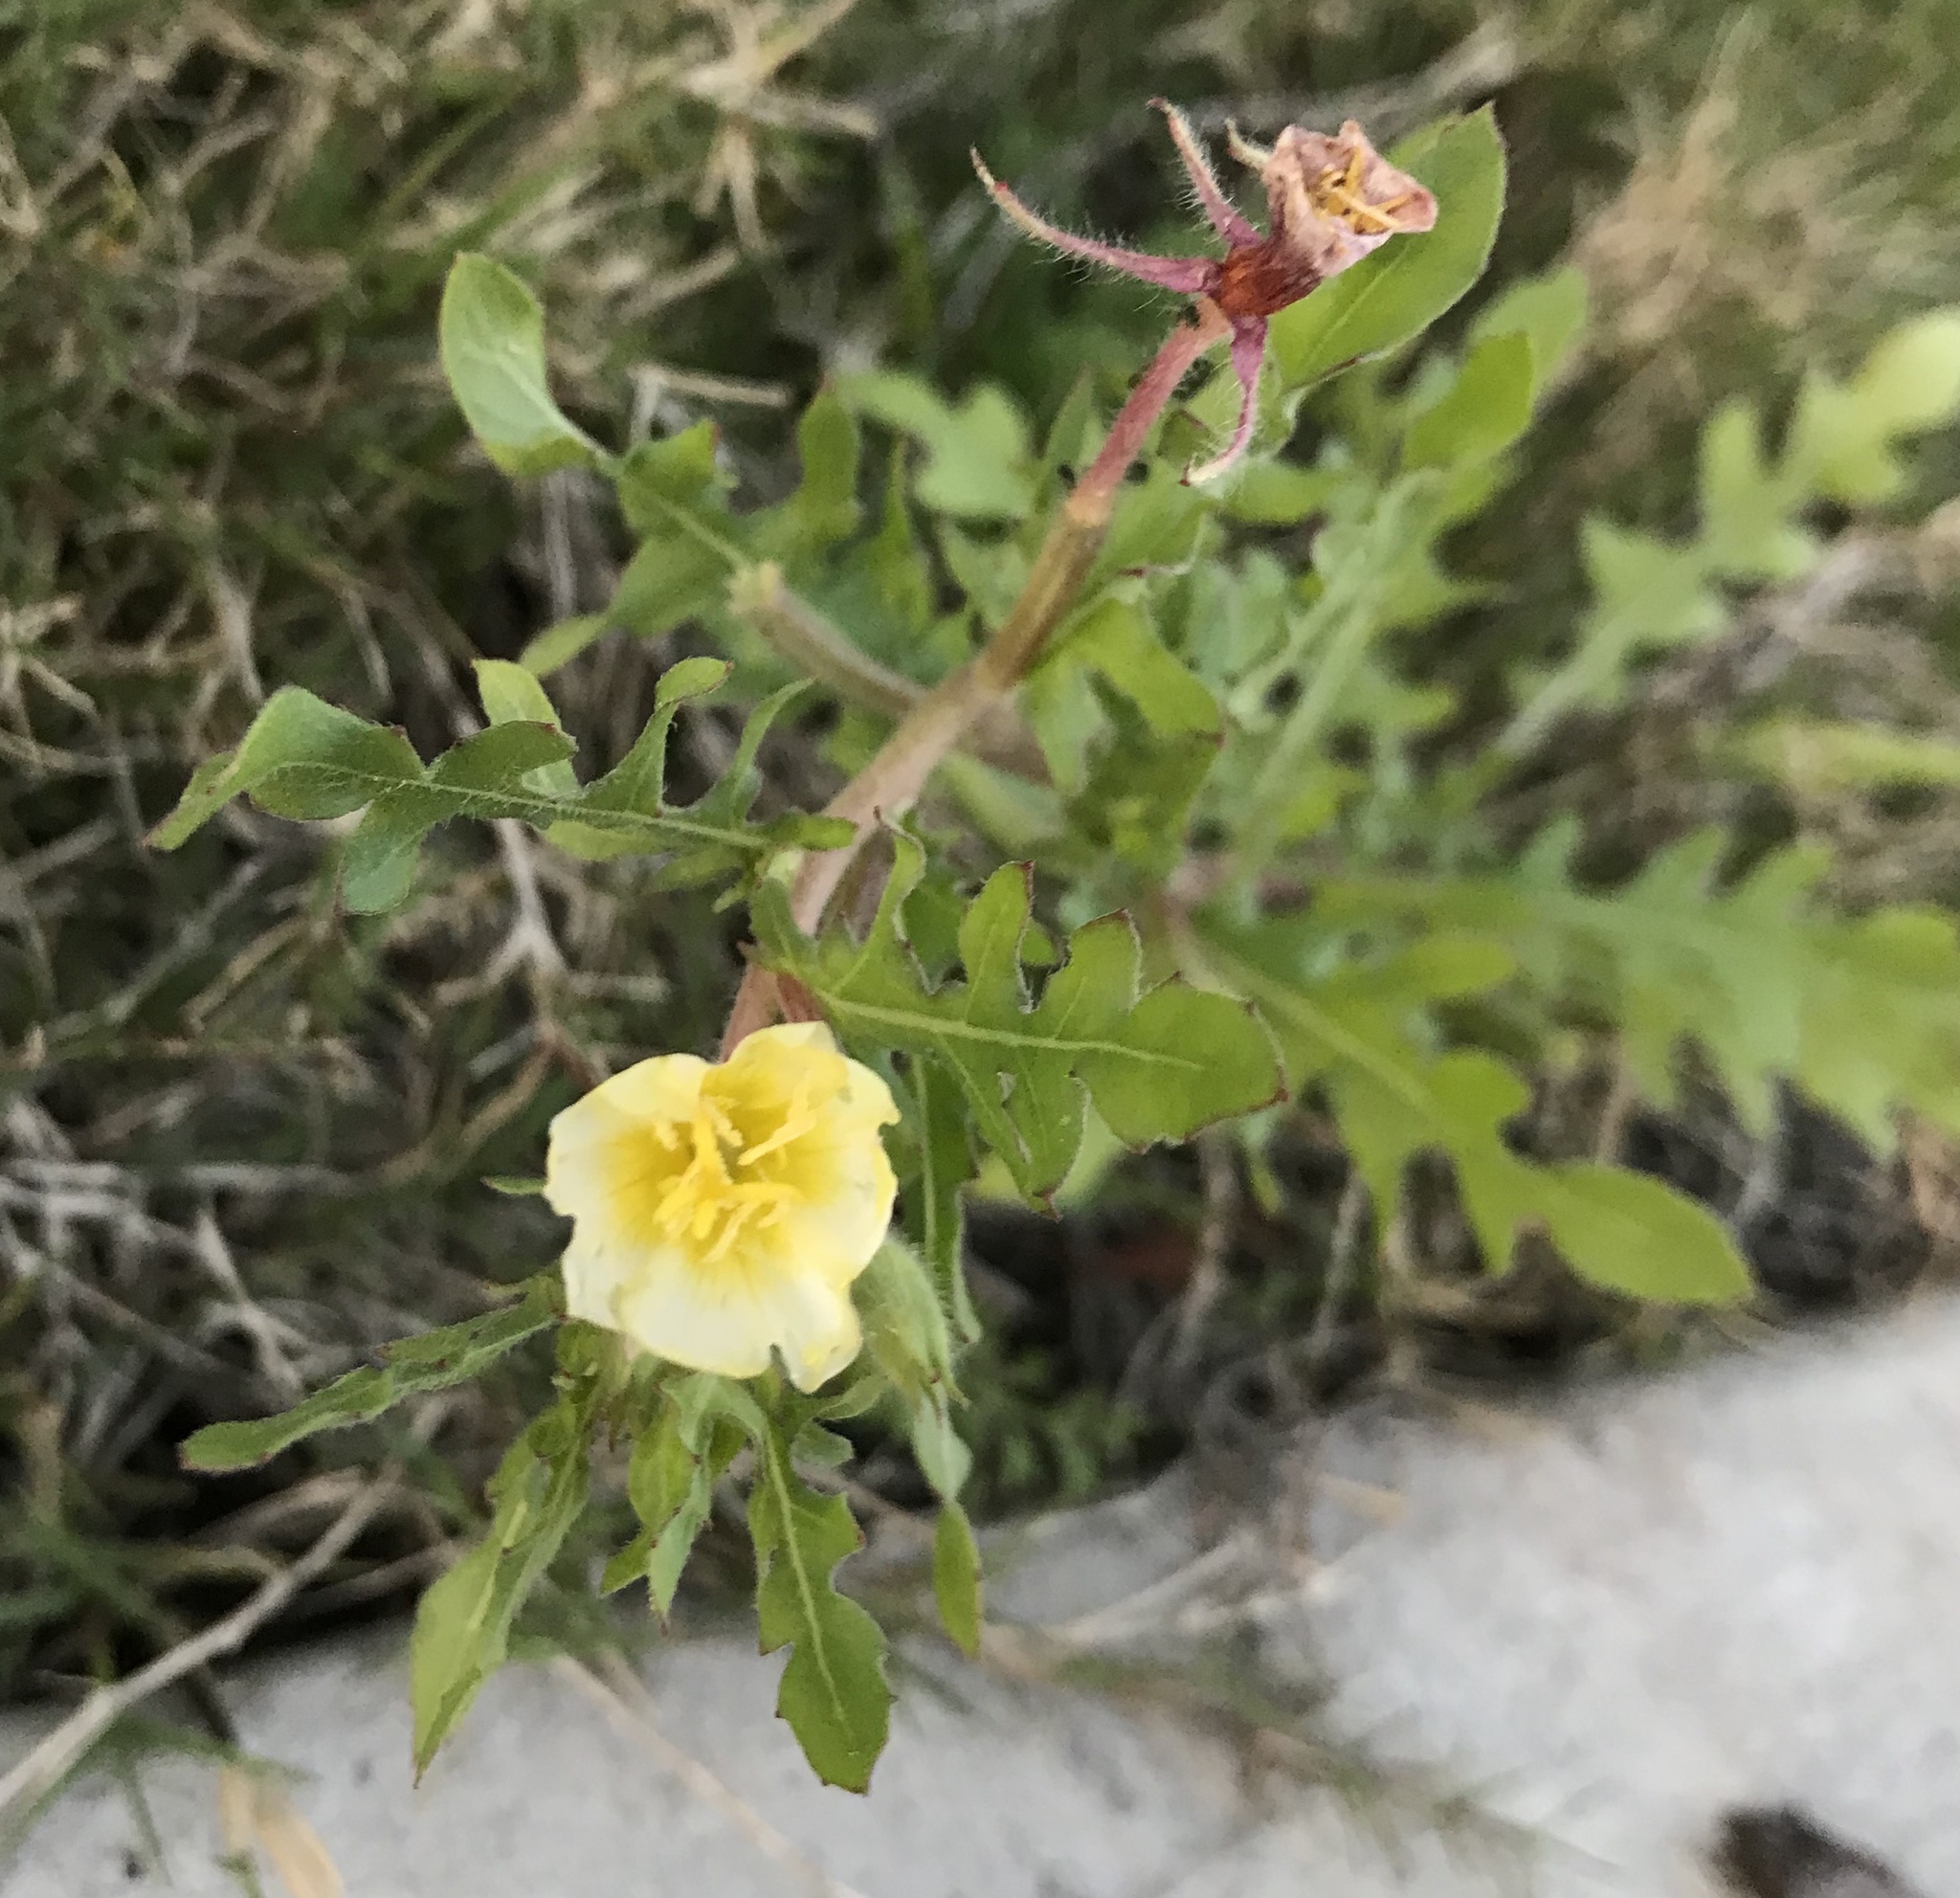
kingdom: Plantae
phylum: Tracheophyta
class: Magnoliopsida
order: Myrtales
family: Onagraceae
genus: Oenothera
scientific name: Oenothera laciniata
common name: Cut-leaved evening-primrose
